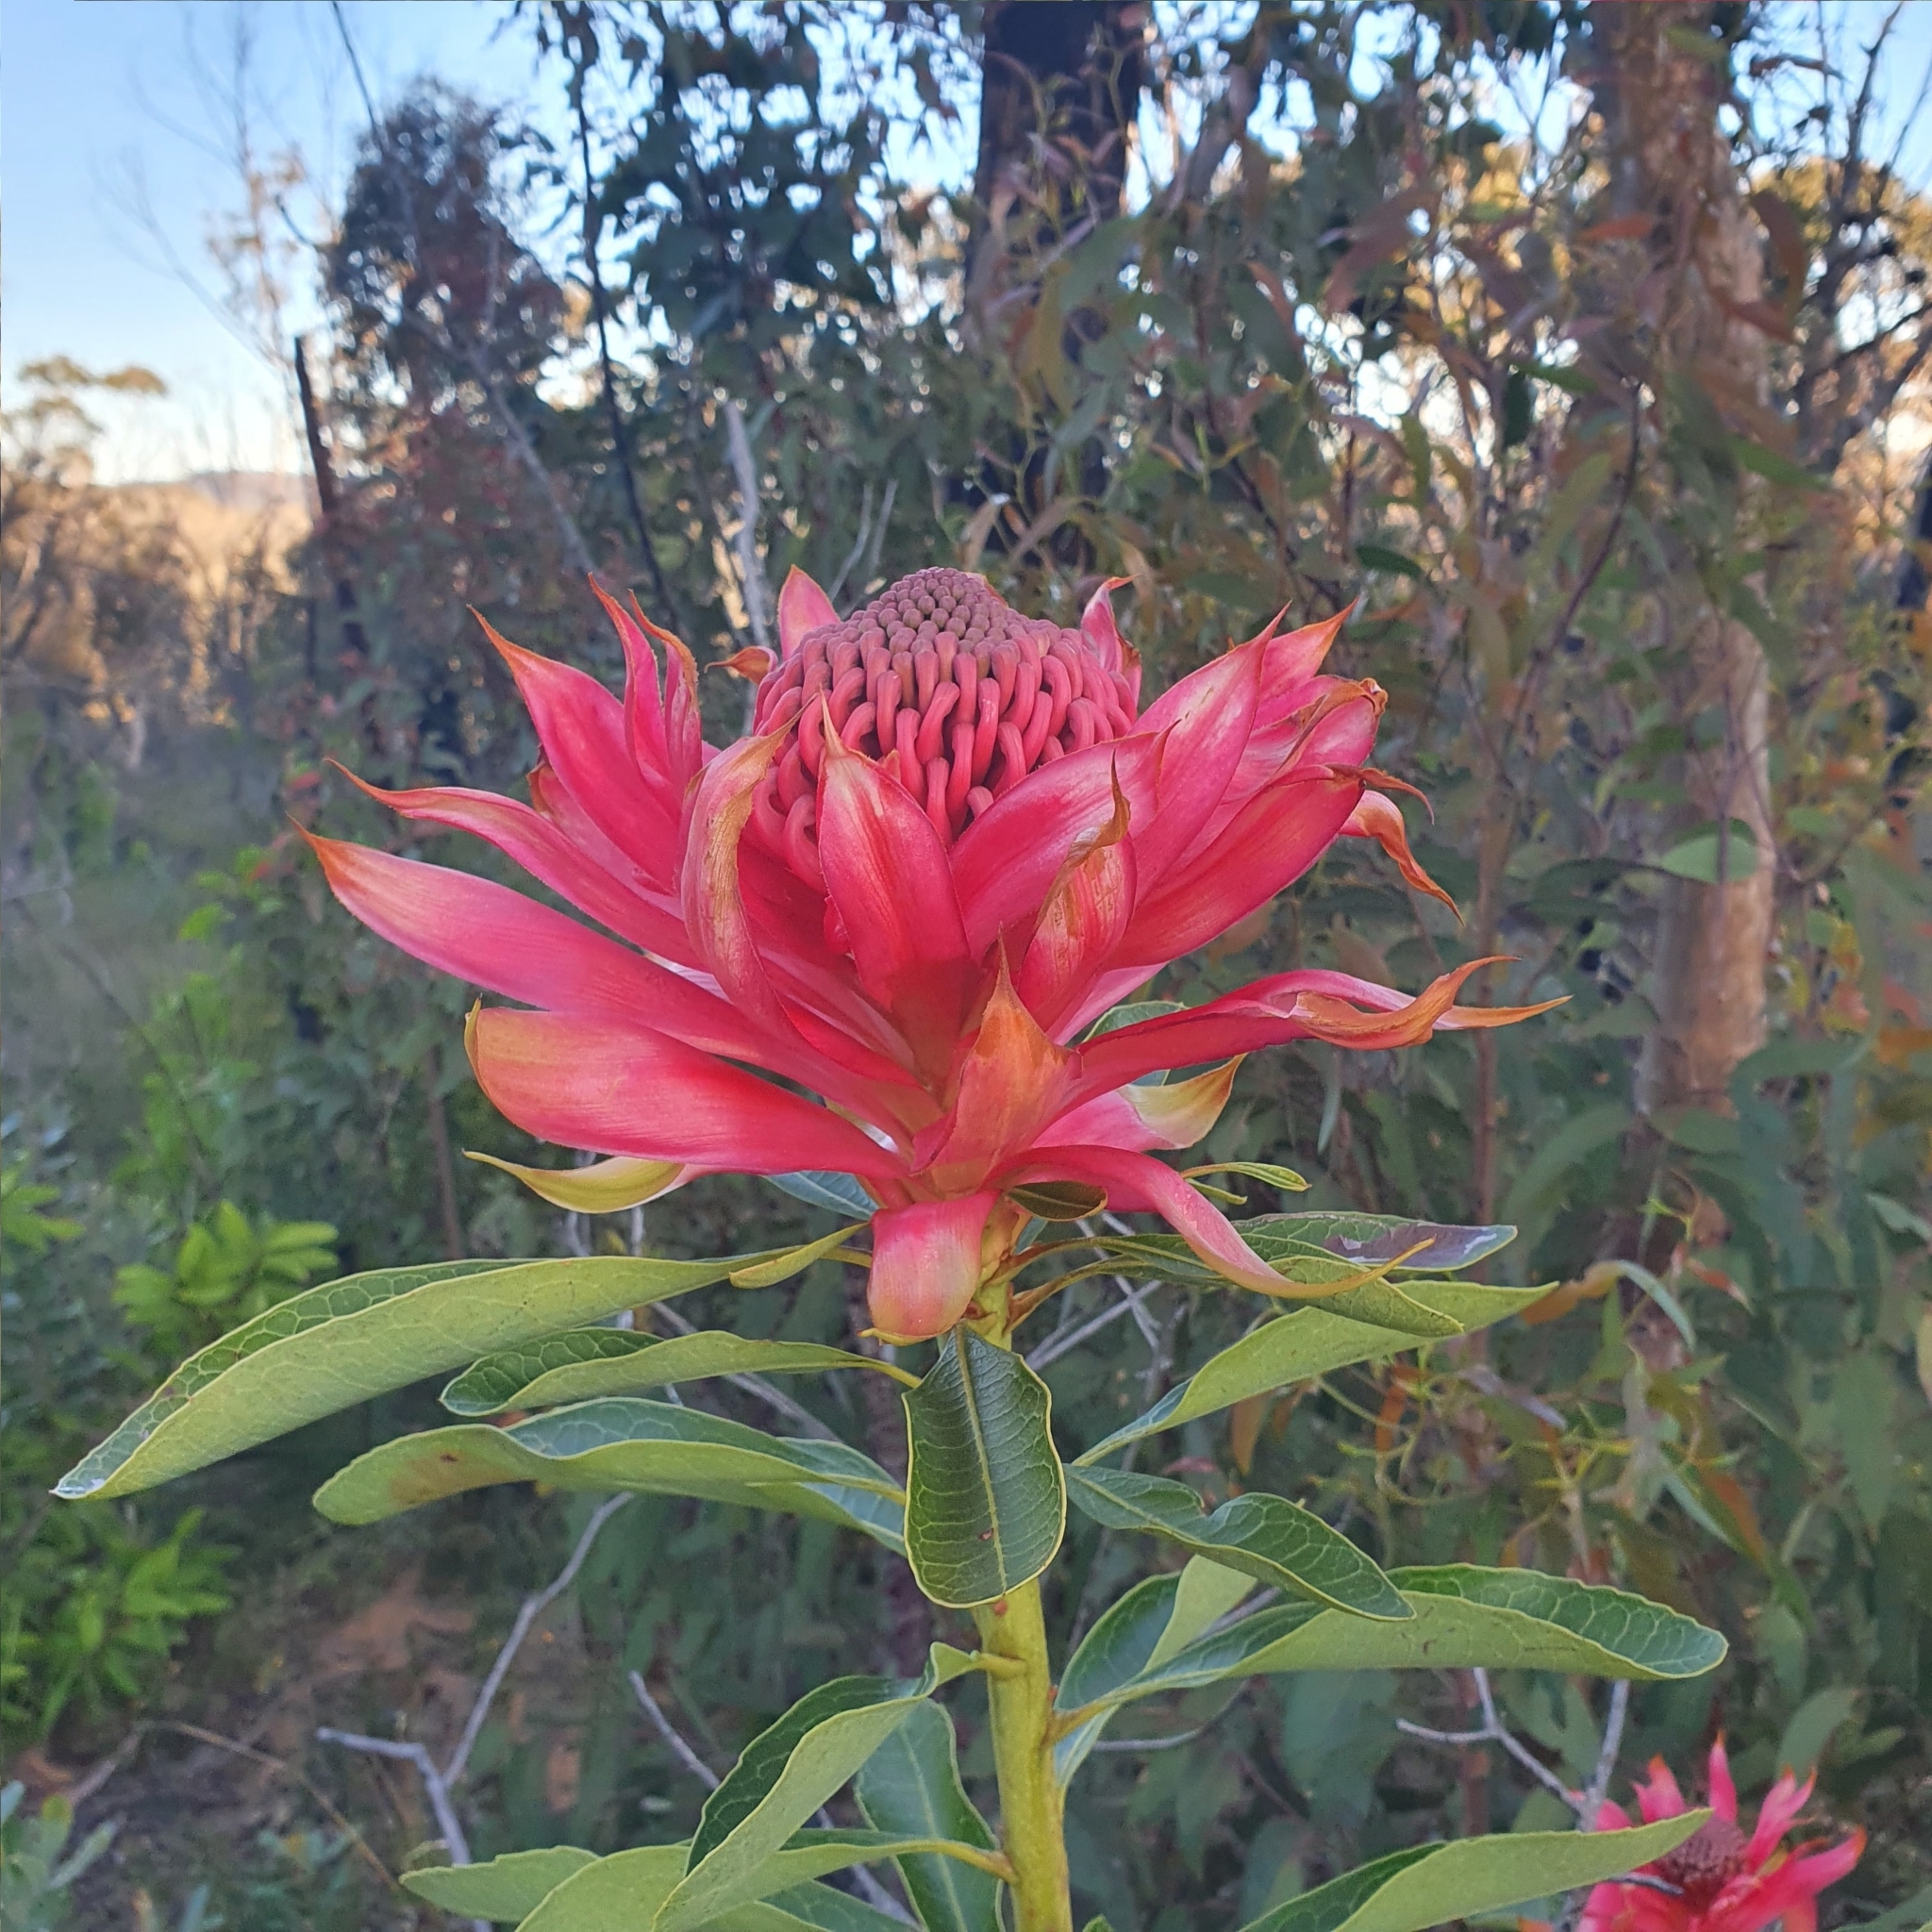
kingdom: Plantae
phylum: Tracheophyta
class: Magnoliopsida
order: Proteales
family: Proteaceae
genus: Telopea
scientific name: Telopea speciosissima
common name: New south wales waratah
